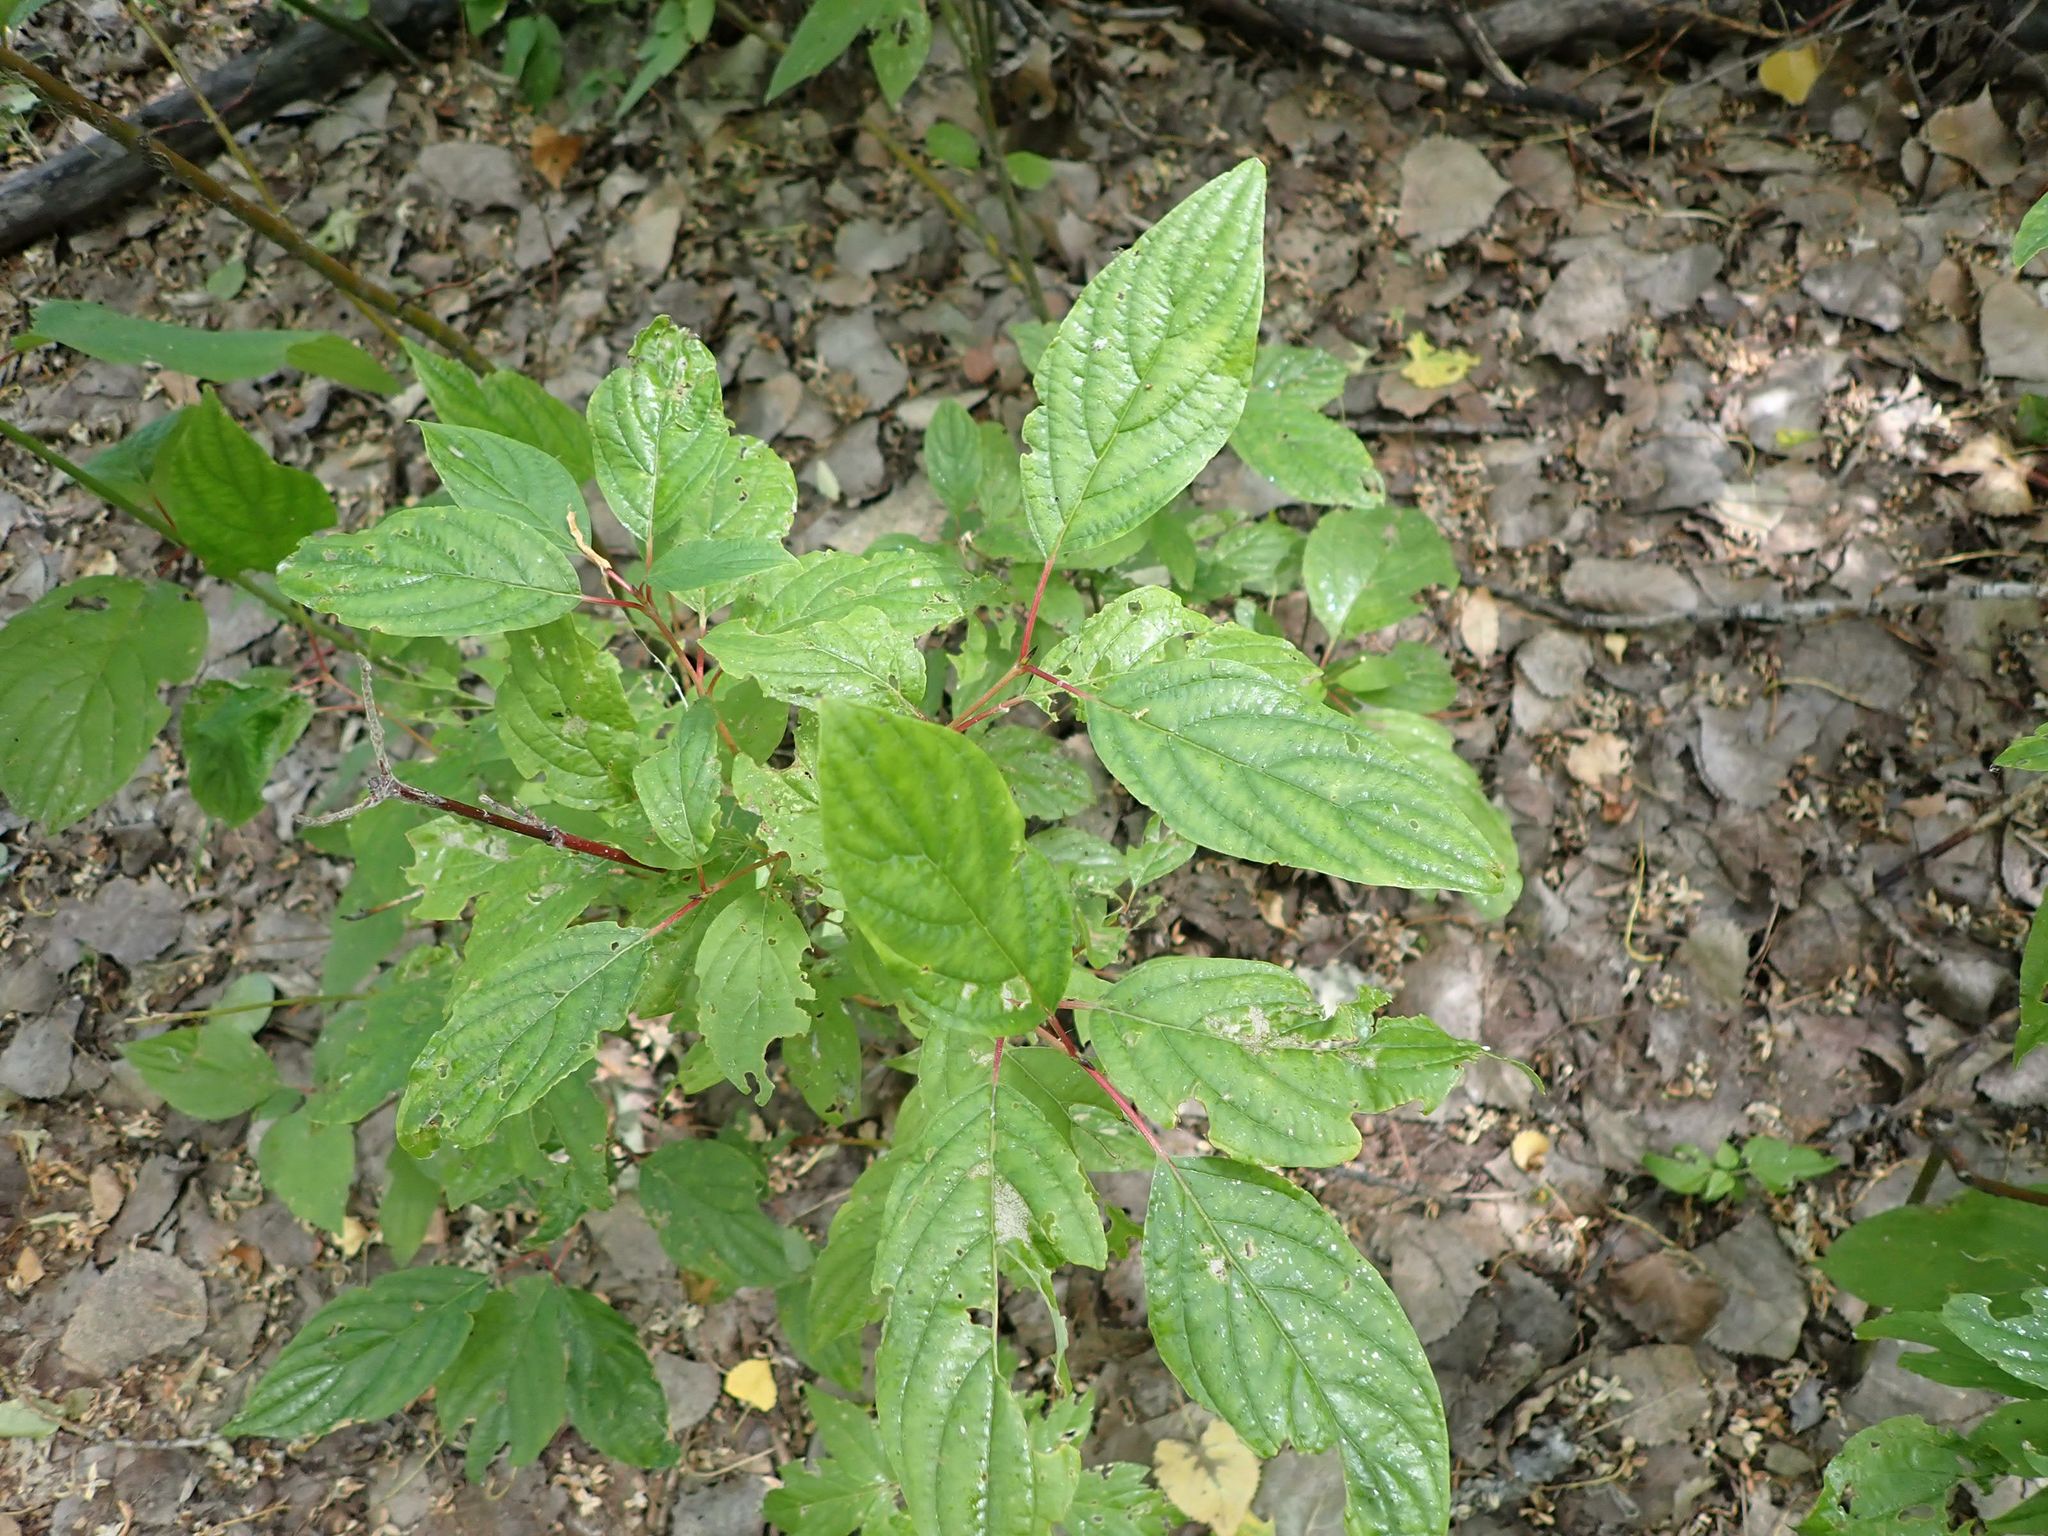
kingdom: Plantae
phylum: Tracheophyta
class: Magnoliopsida
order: Cornales
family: Cornaceae
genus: Cornus
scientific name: Cornus sericea
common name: Red-osier dogwood
